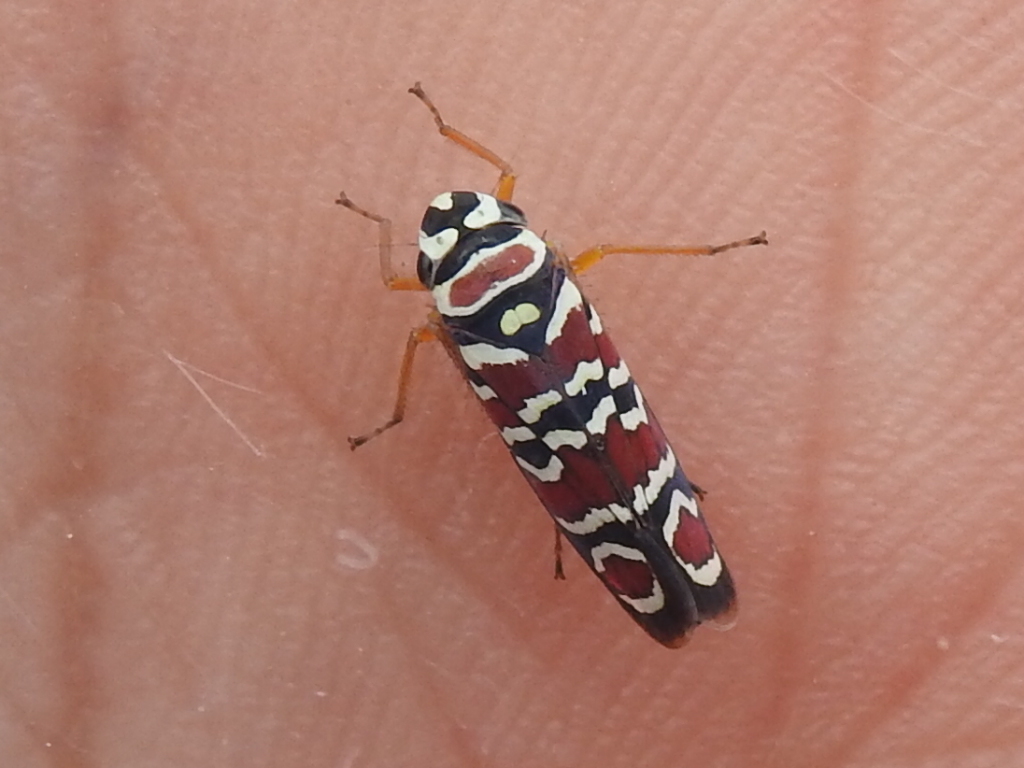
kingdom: Animalia
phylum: Arthropoda
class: Insecta
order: Hemiptera
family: Cicadellidae
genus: Agrosoma
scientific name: Agrosoma placetis
